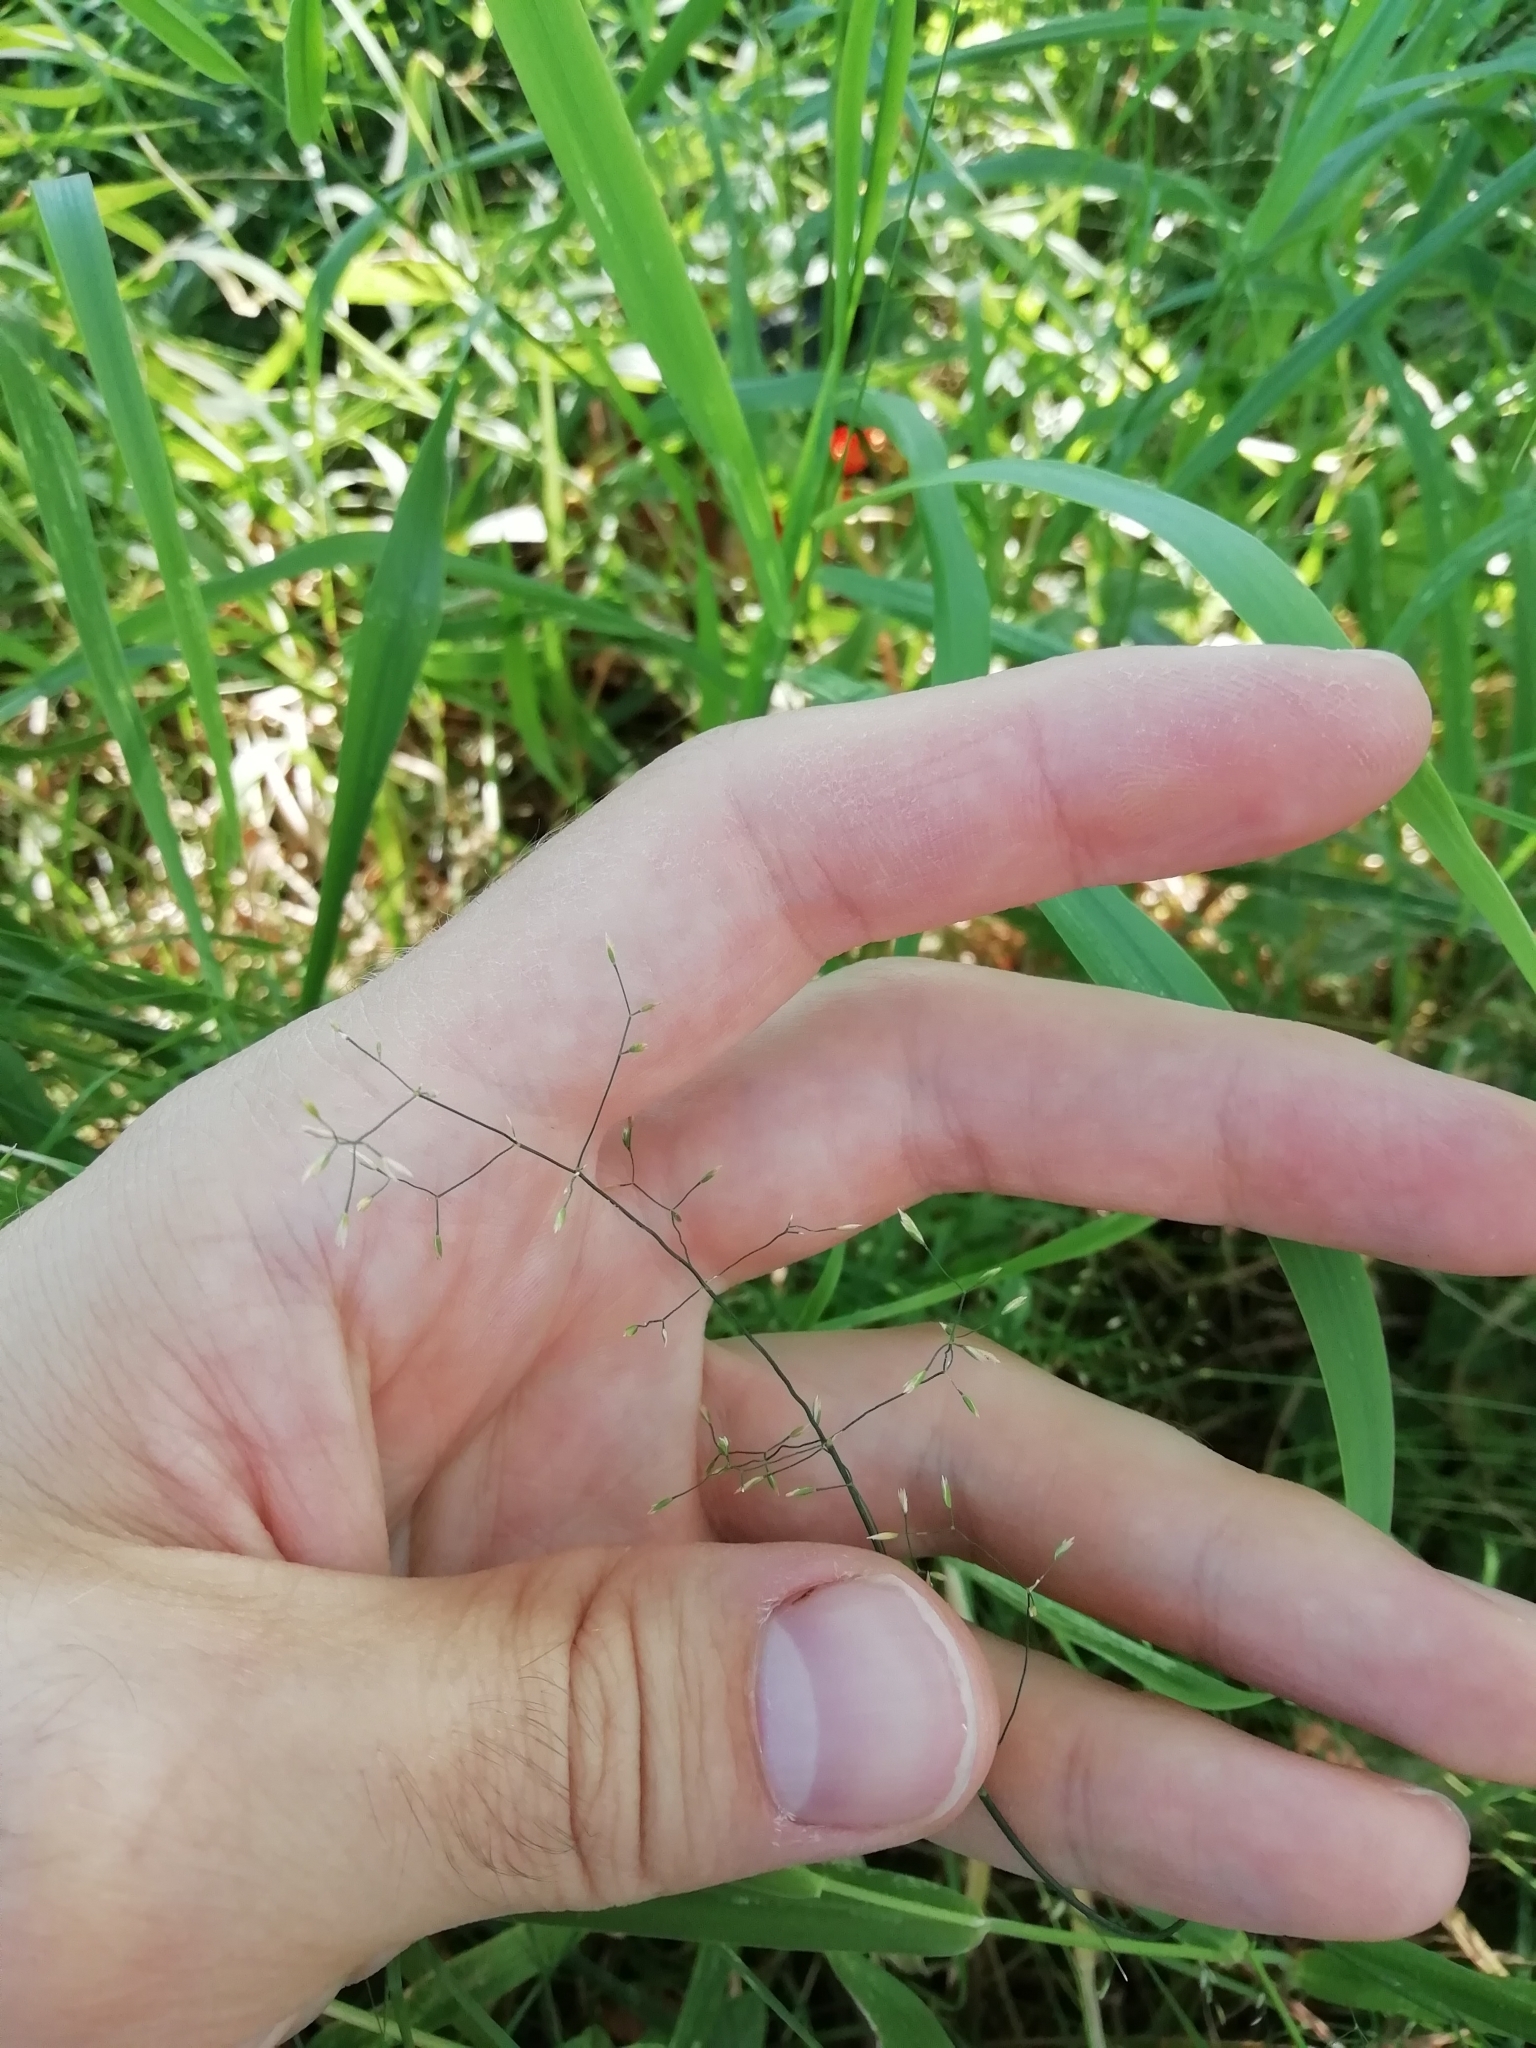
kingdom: Plantae
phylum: Tracheophyta
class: Liliopsida
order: Poales
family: Poaceae
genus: Poa
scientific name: Poa palustris
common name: Swamp meadow-grass
